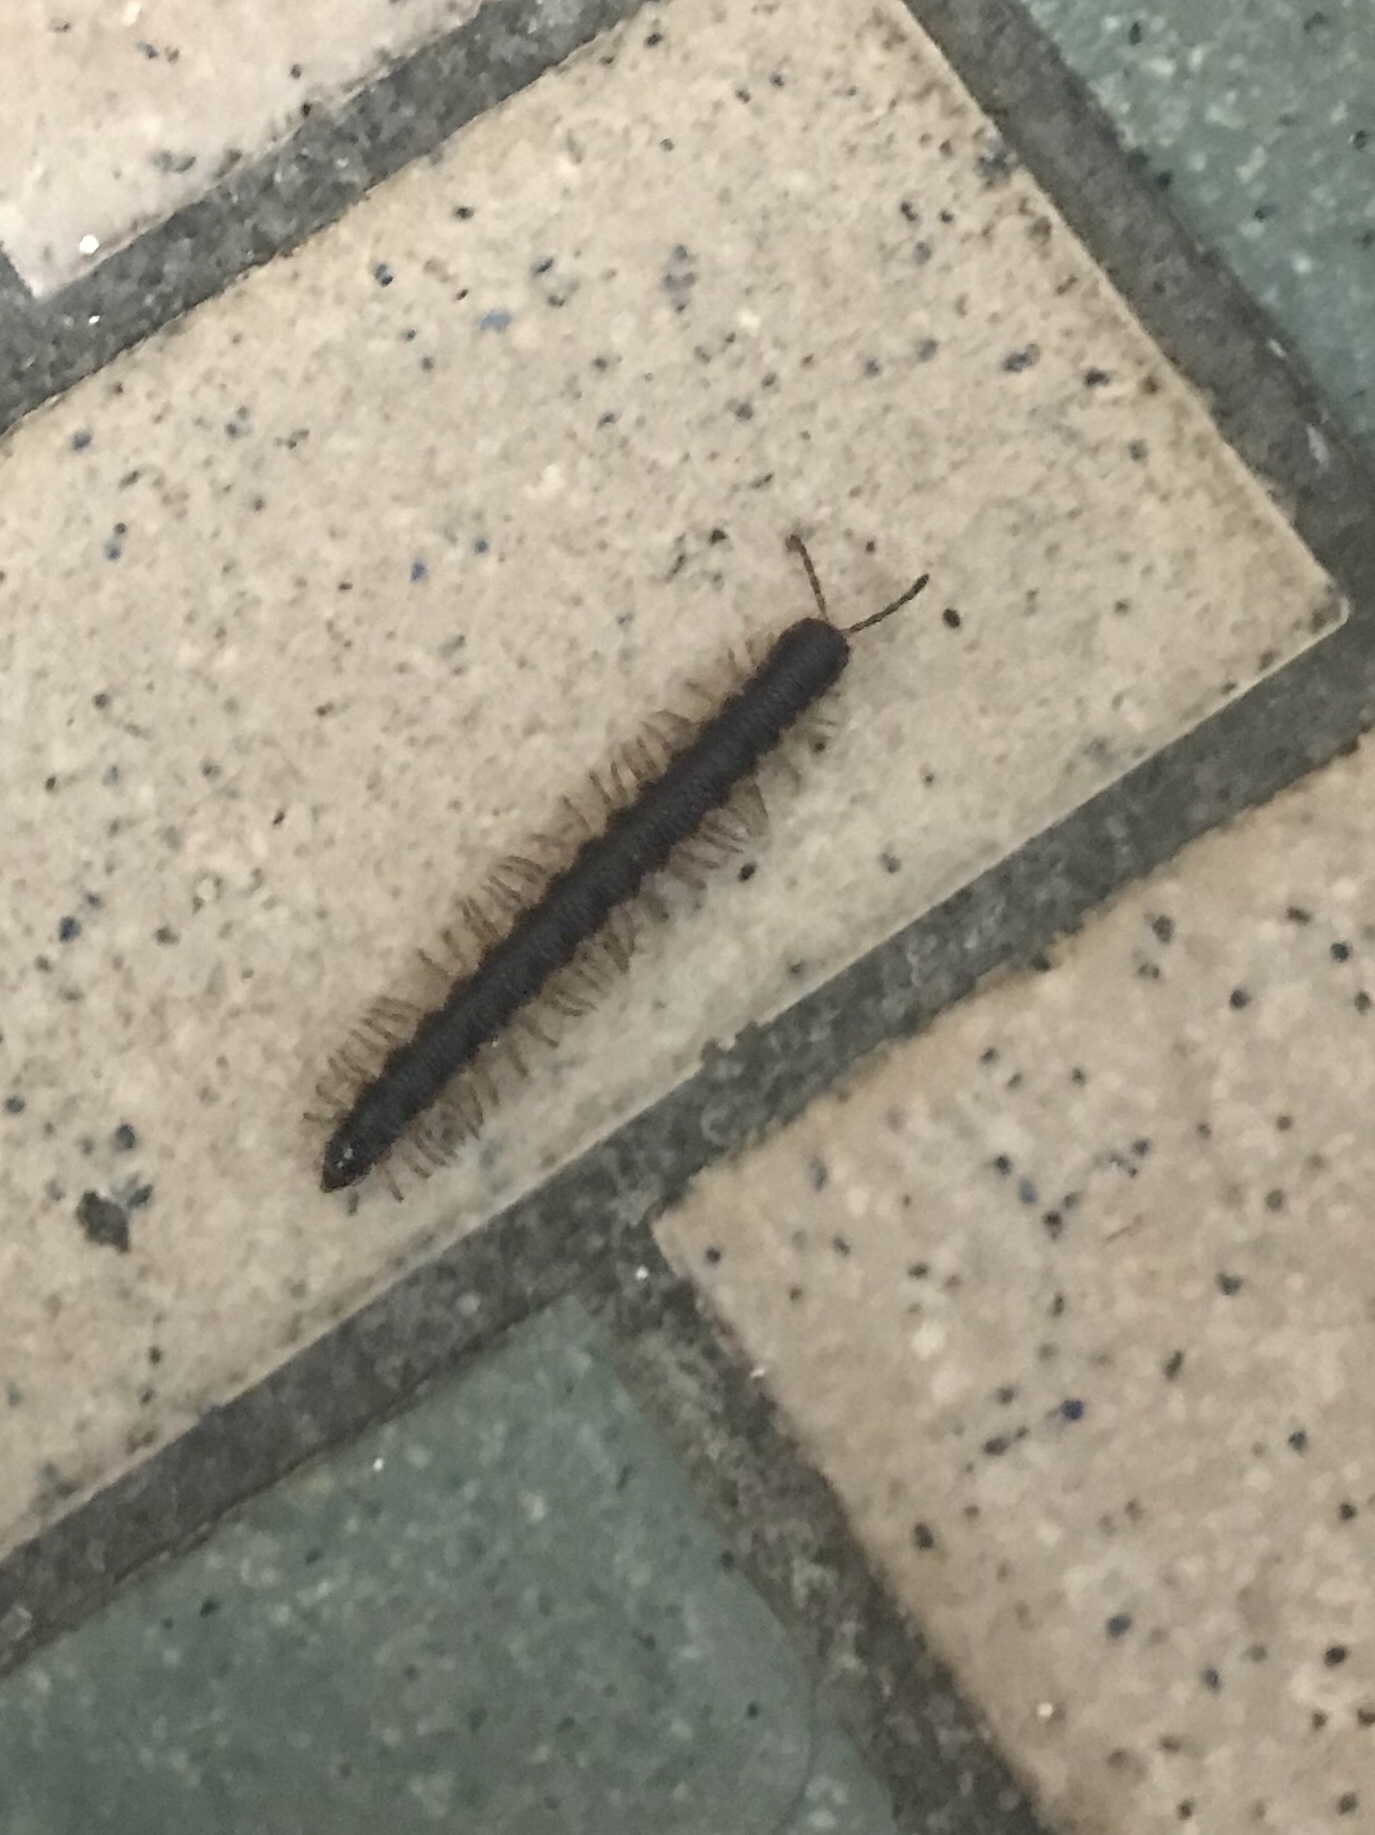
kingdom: Animalia
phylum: Arthropoda
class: Diplopoda
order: Polydesmida
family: Paradoxosomatidae
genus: Oxidus
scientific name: Oxidus gracilis
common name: Greenhouse millipede
